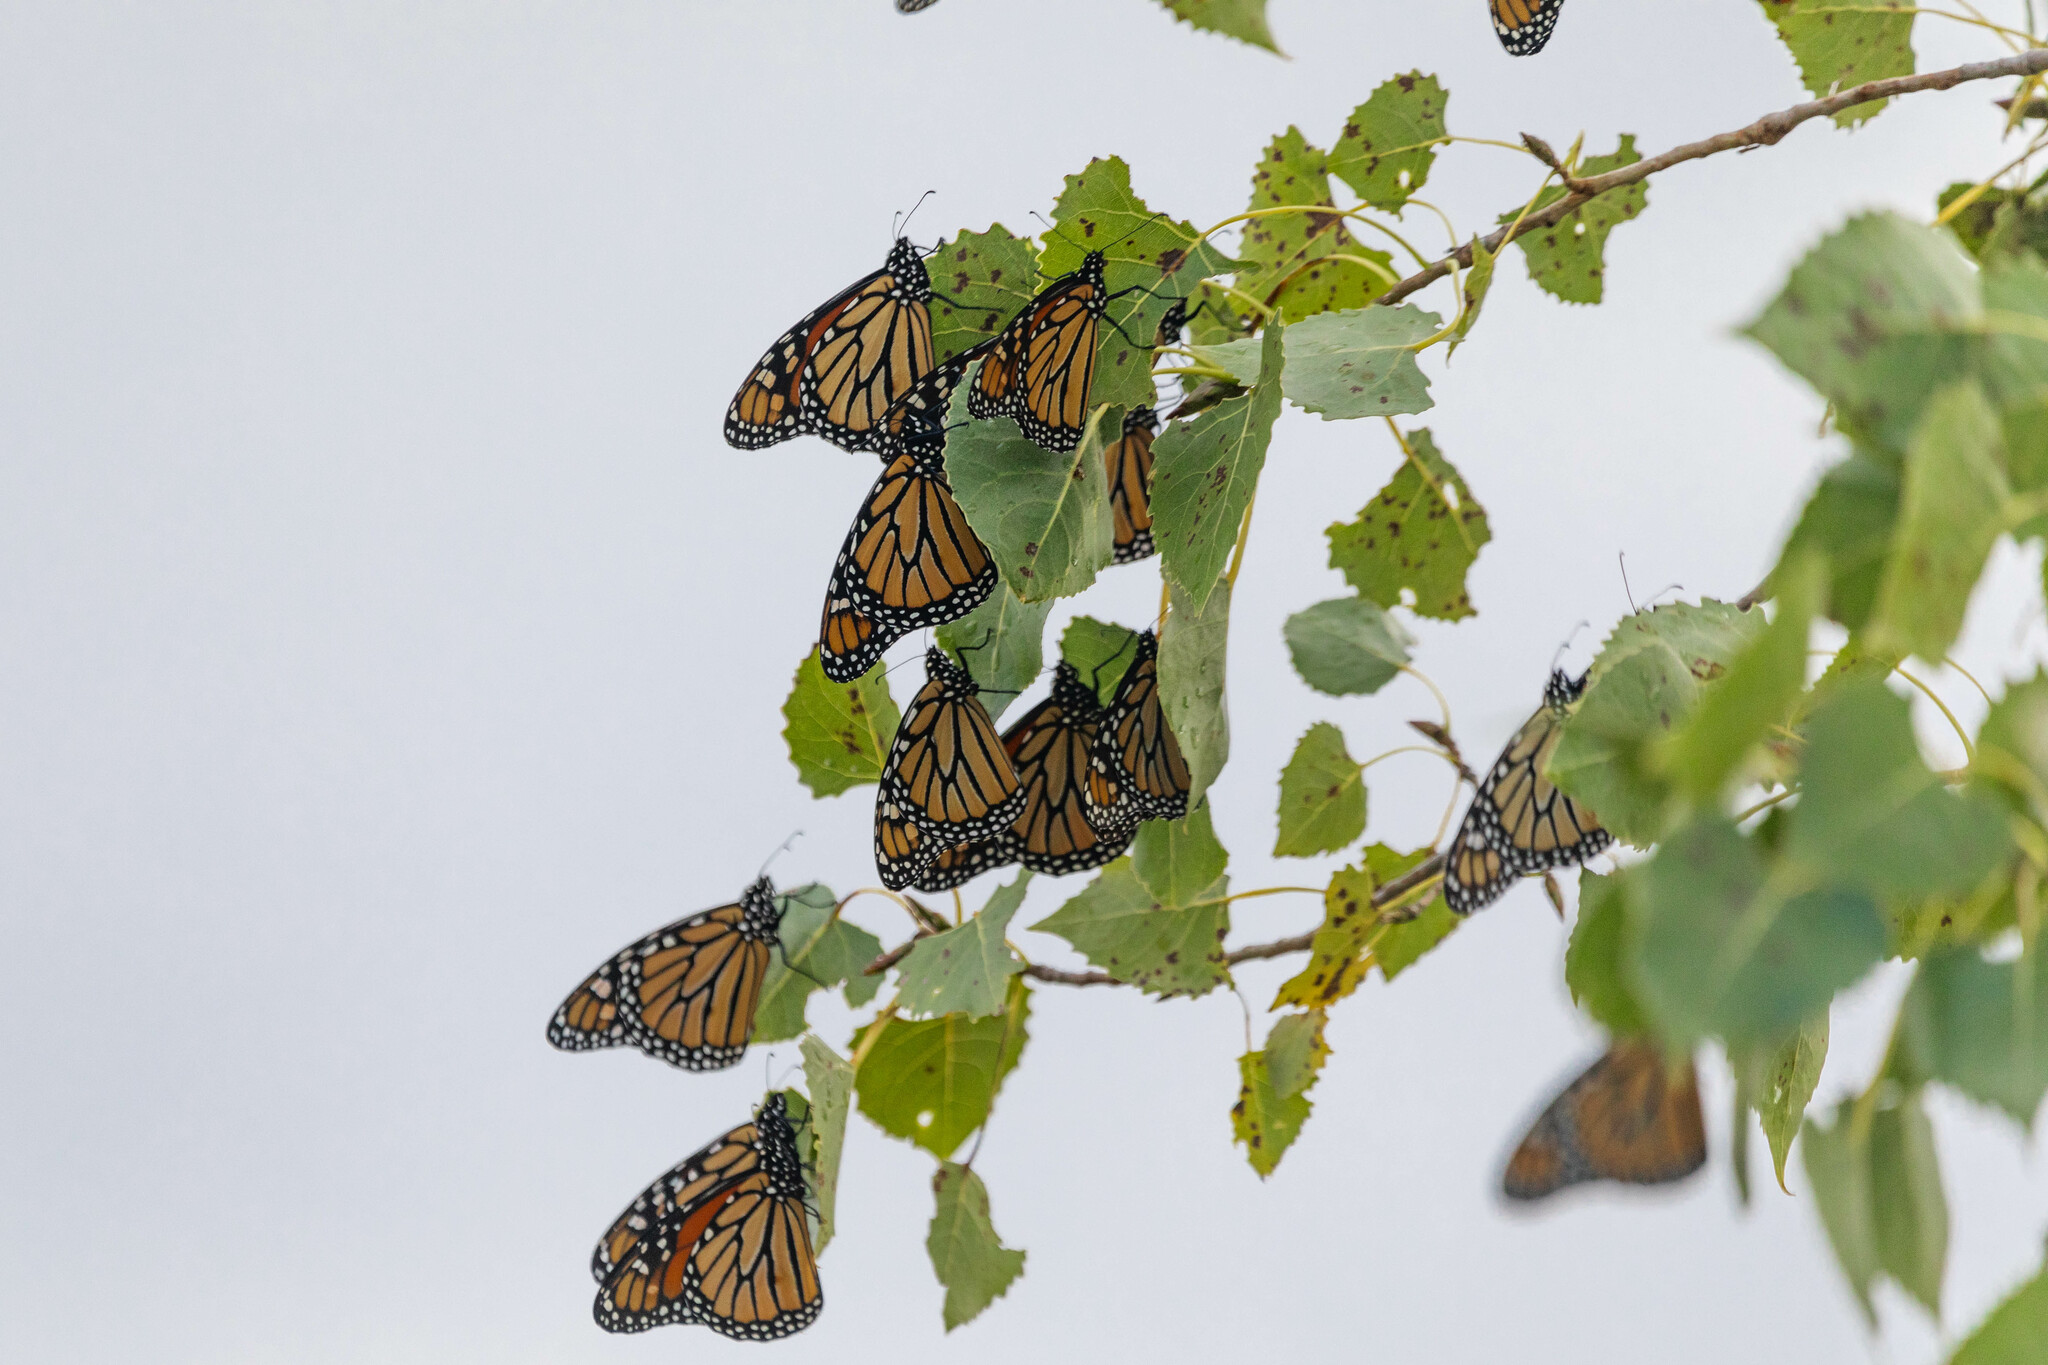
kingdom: Animalia
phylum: Arthropoda
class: Insecta
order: Lepidoptera
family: Nymphalidae
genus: Danaus
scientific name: Danaus plexippus
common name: Monarch
